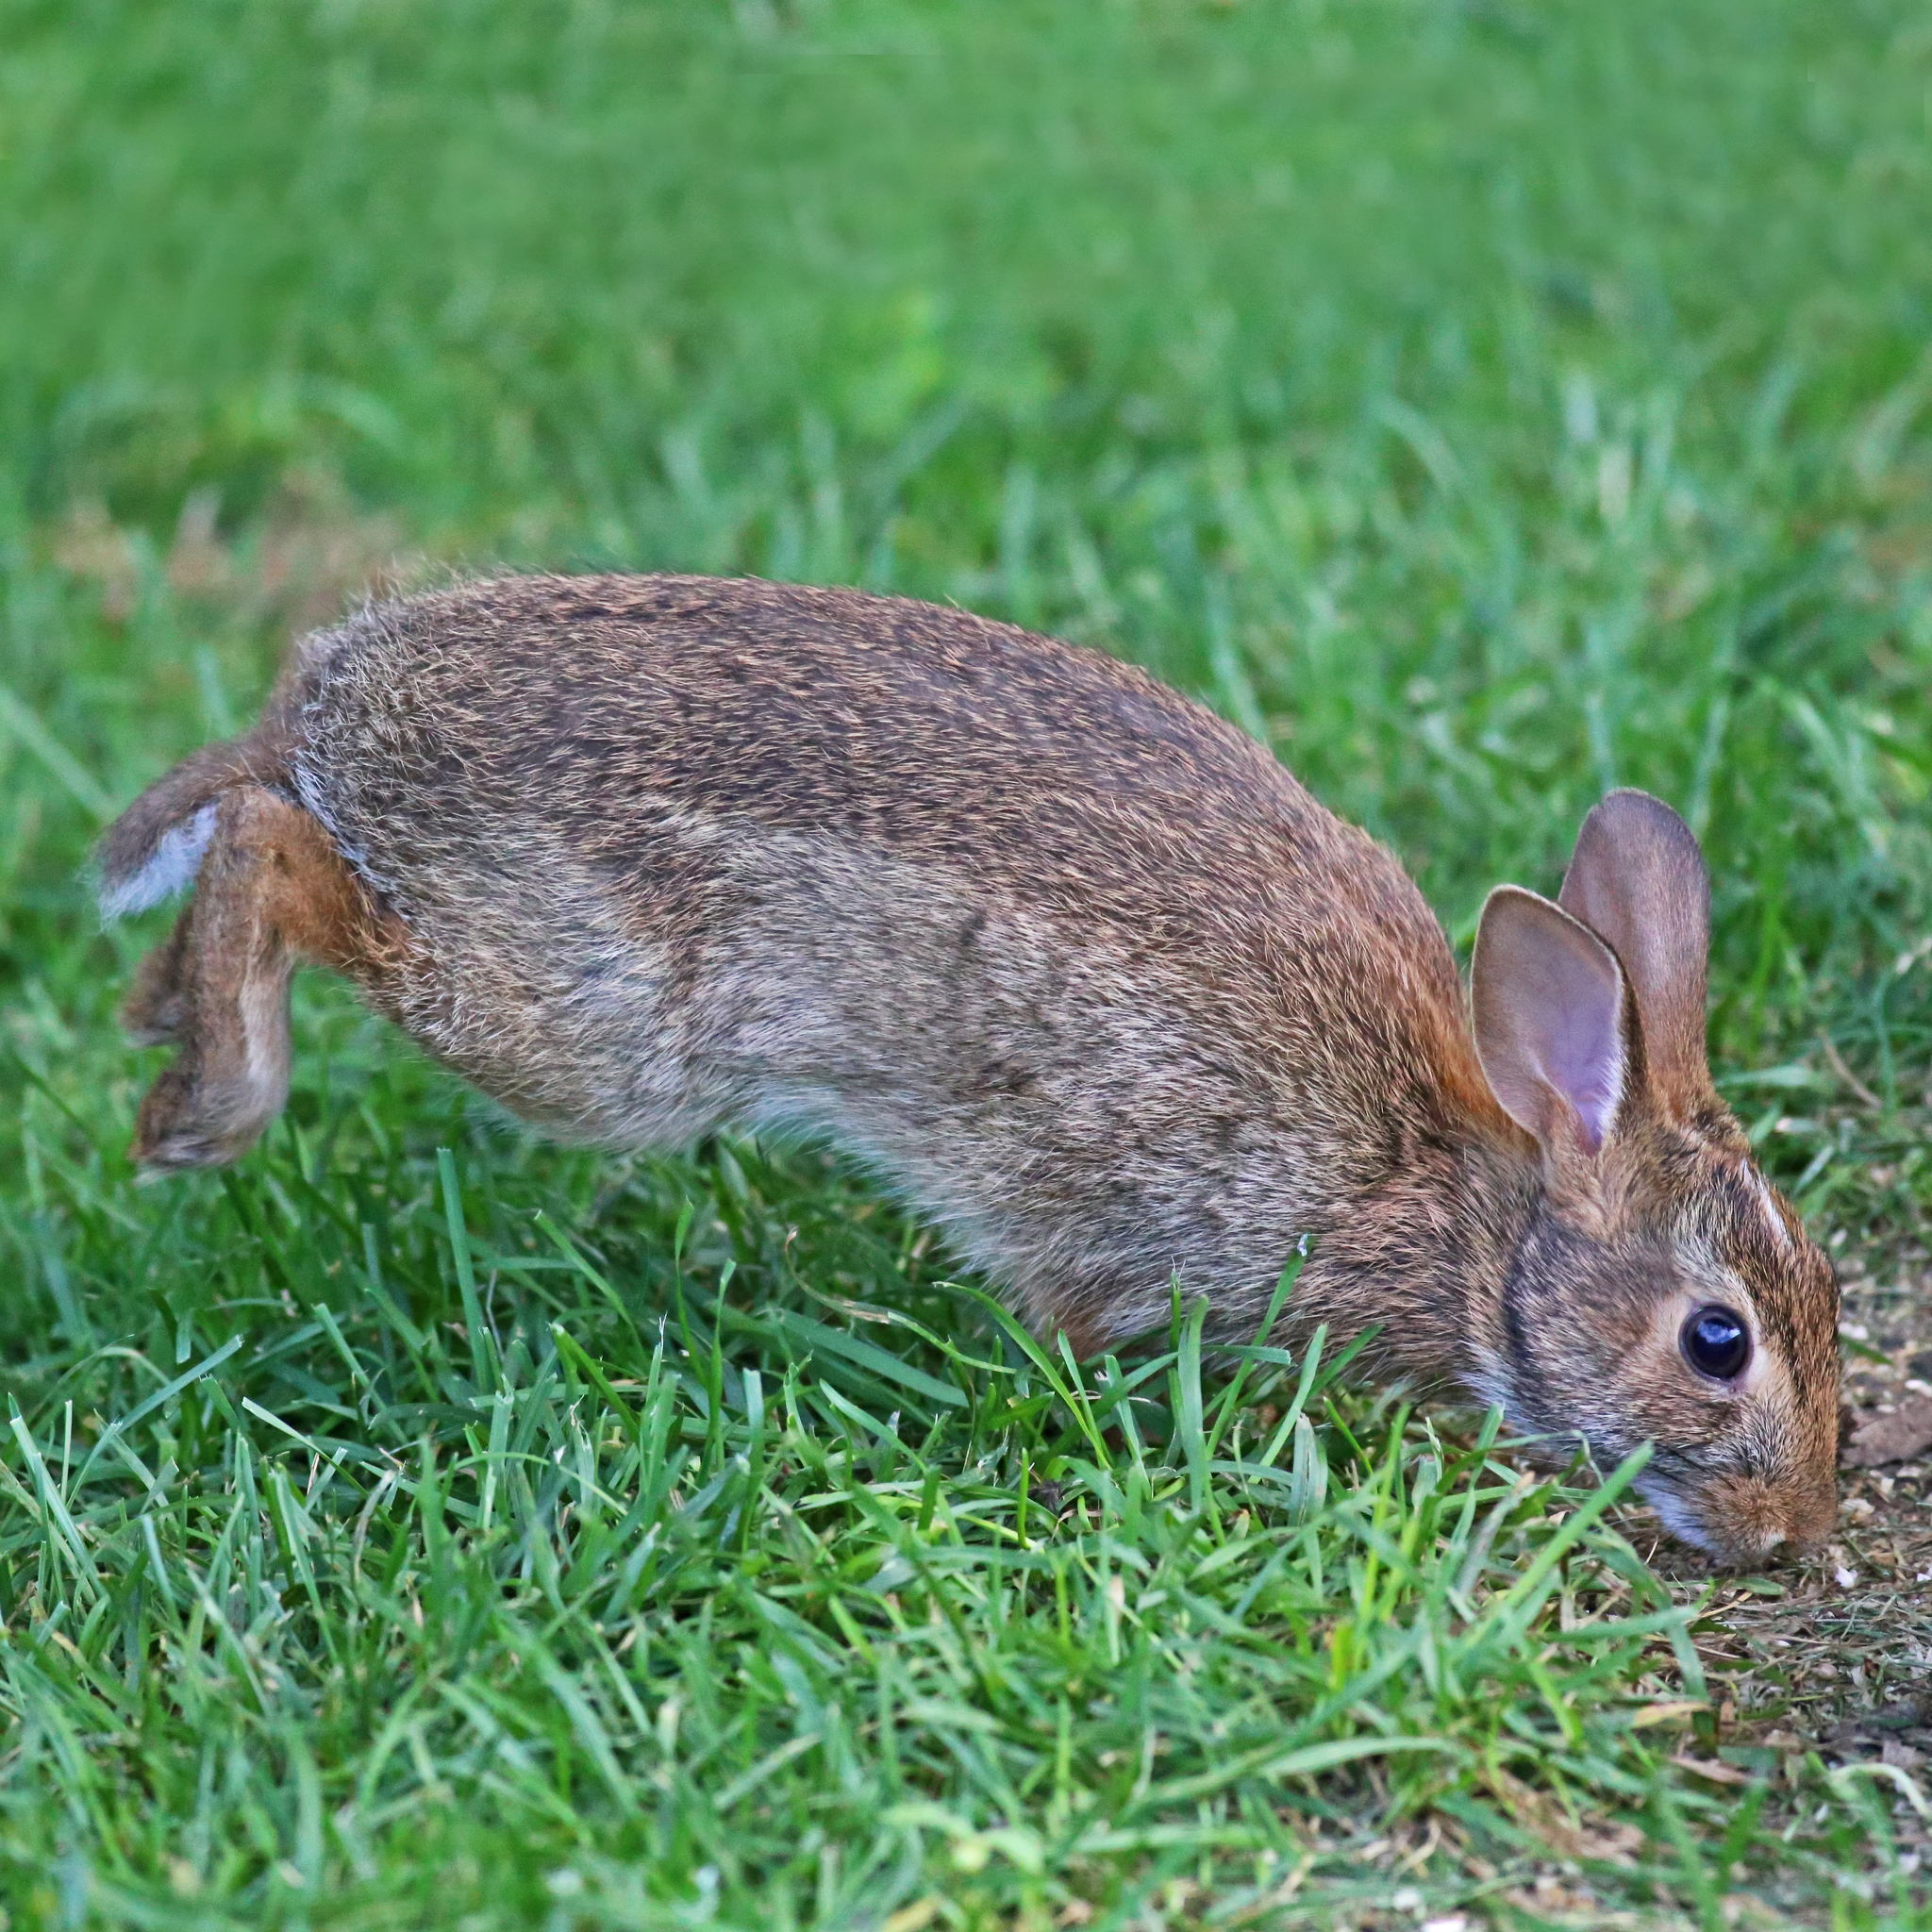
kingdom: Animalia
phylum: Chordata
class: Mammalia
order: Lagomorpha
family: Leporidae
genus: Sylvilagus
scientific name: Sylvilagus floridanus
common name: Eastern cottontail
